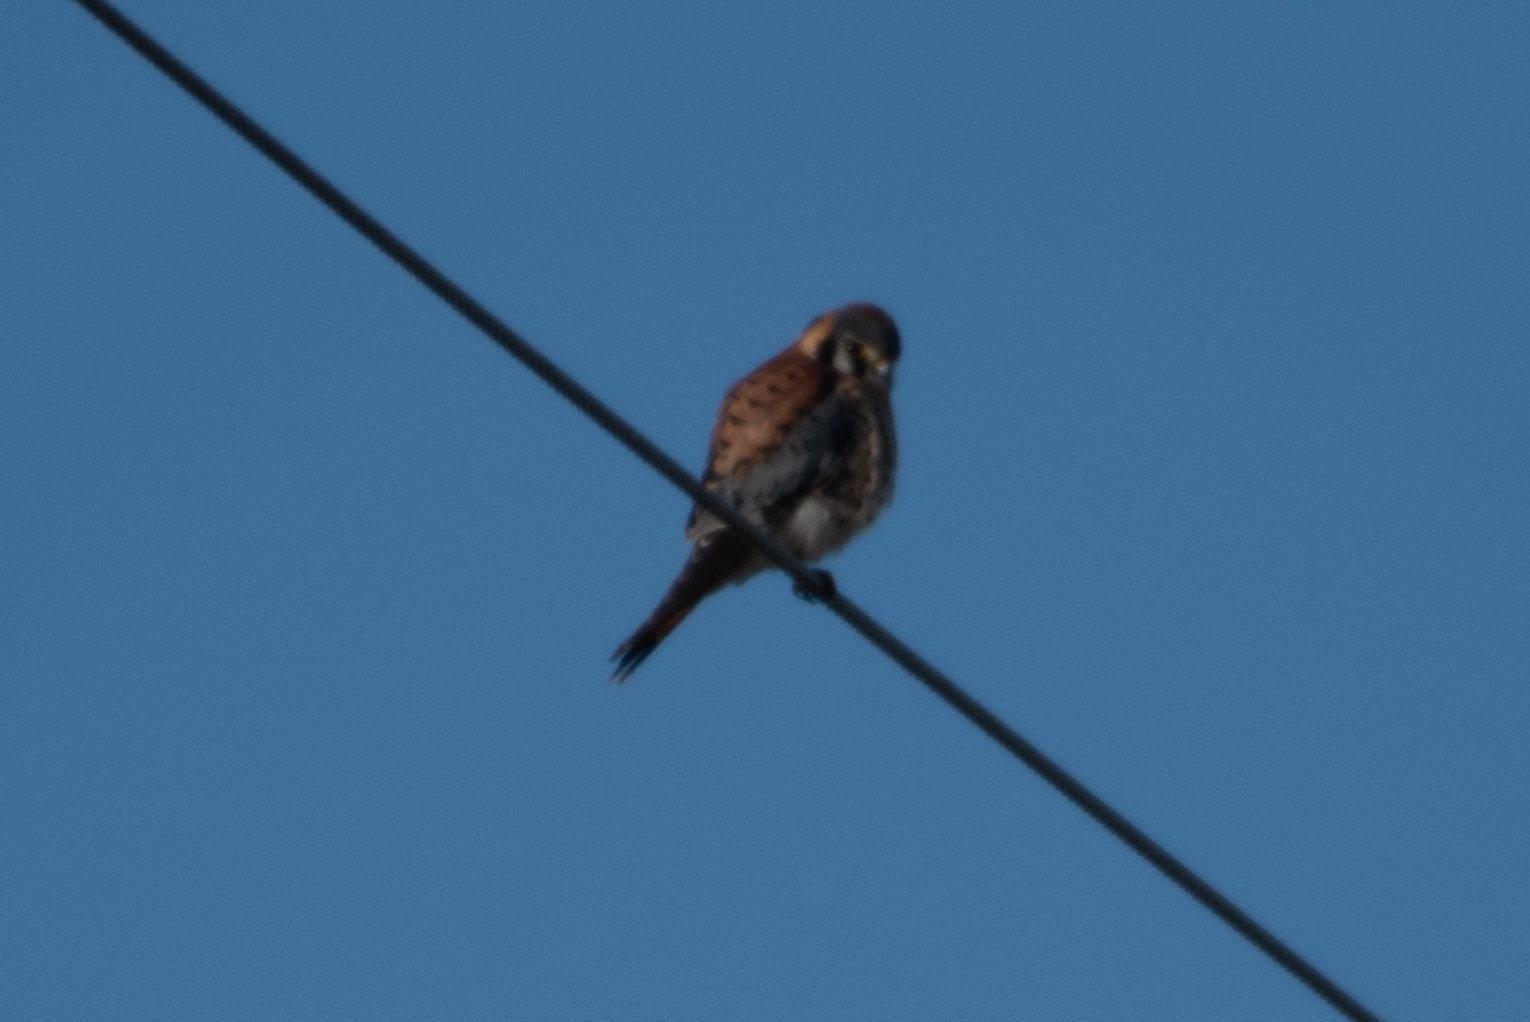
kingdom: Animalia
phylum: Chordata
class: Aves
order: Falconiformes
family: Falconidae
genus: Falco
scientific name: Falco sparverius
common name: American kestrel
